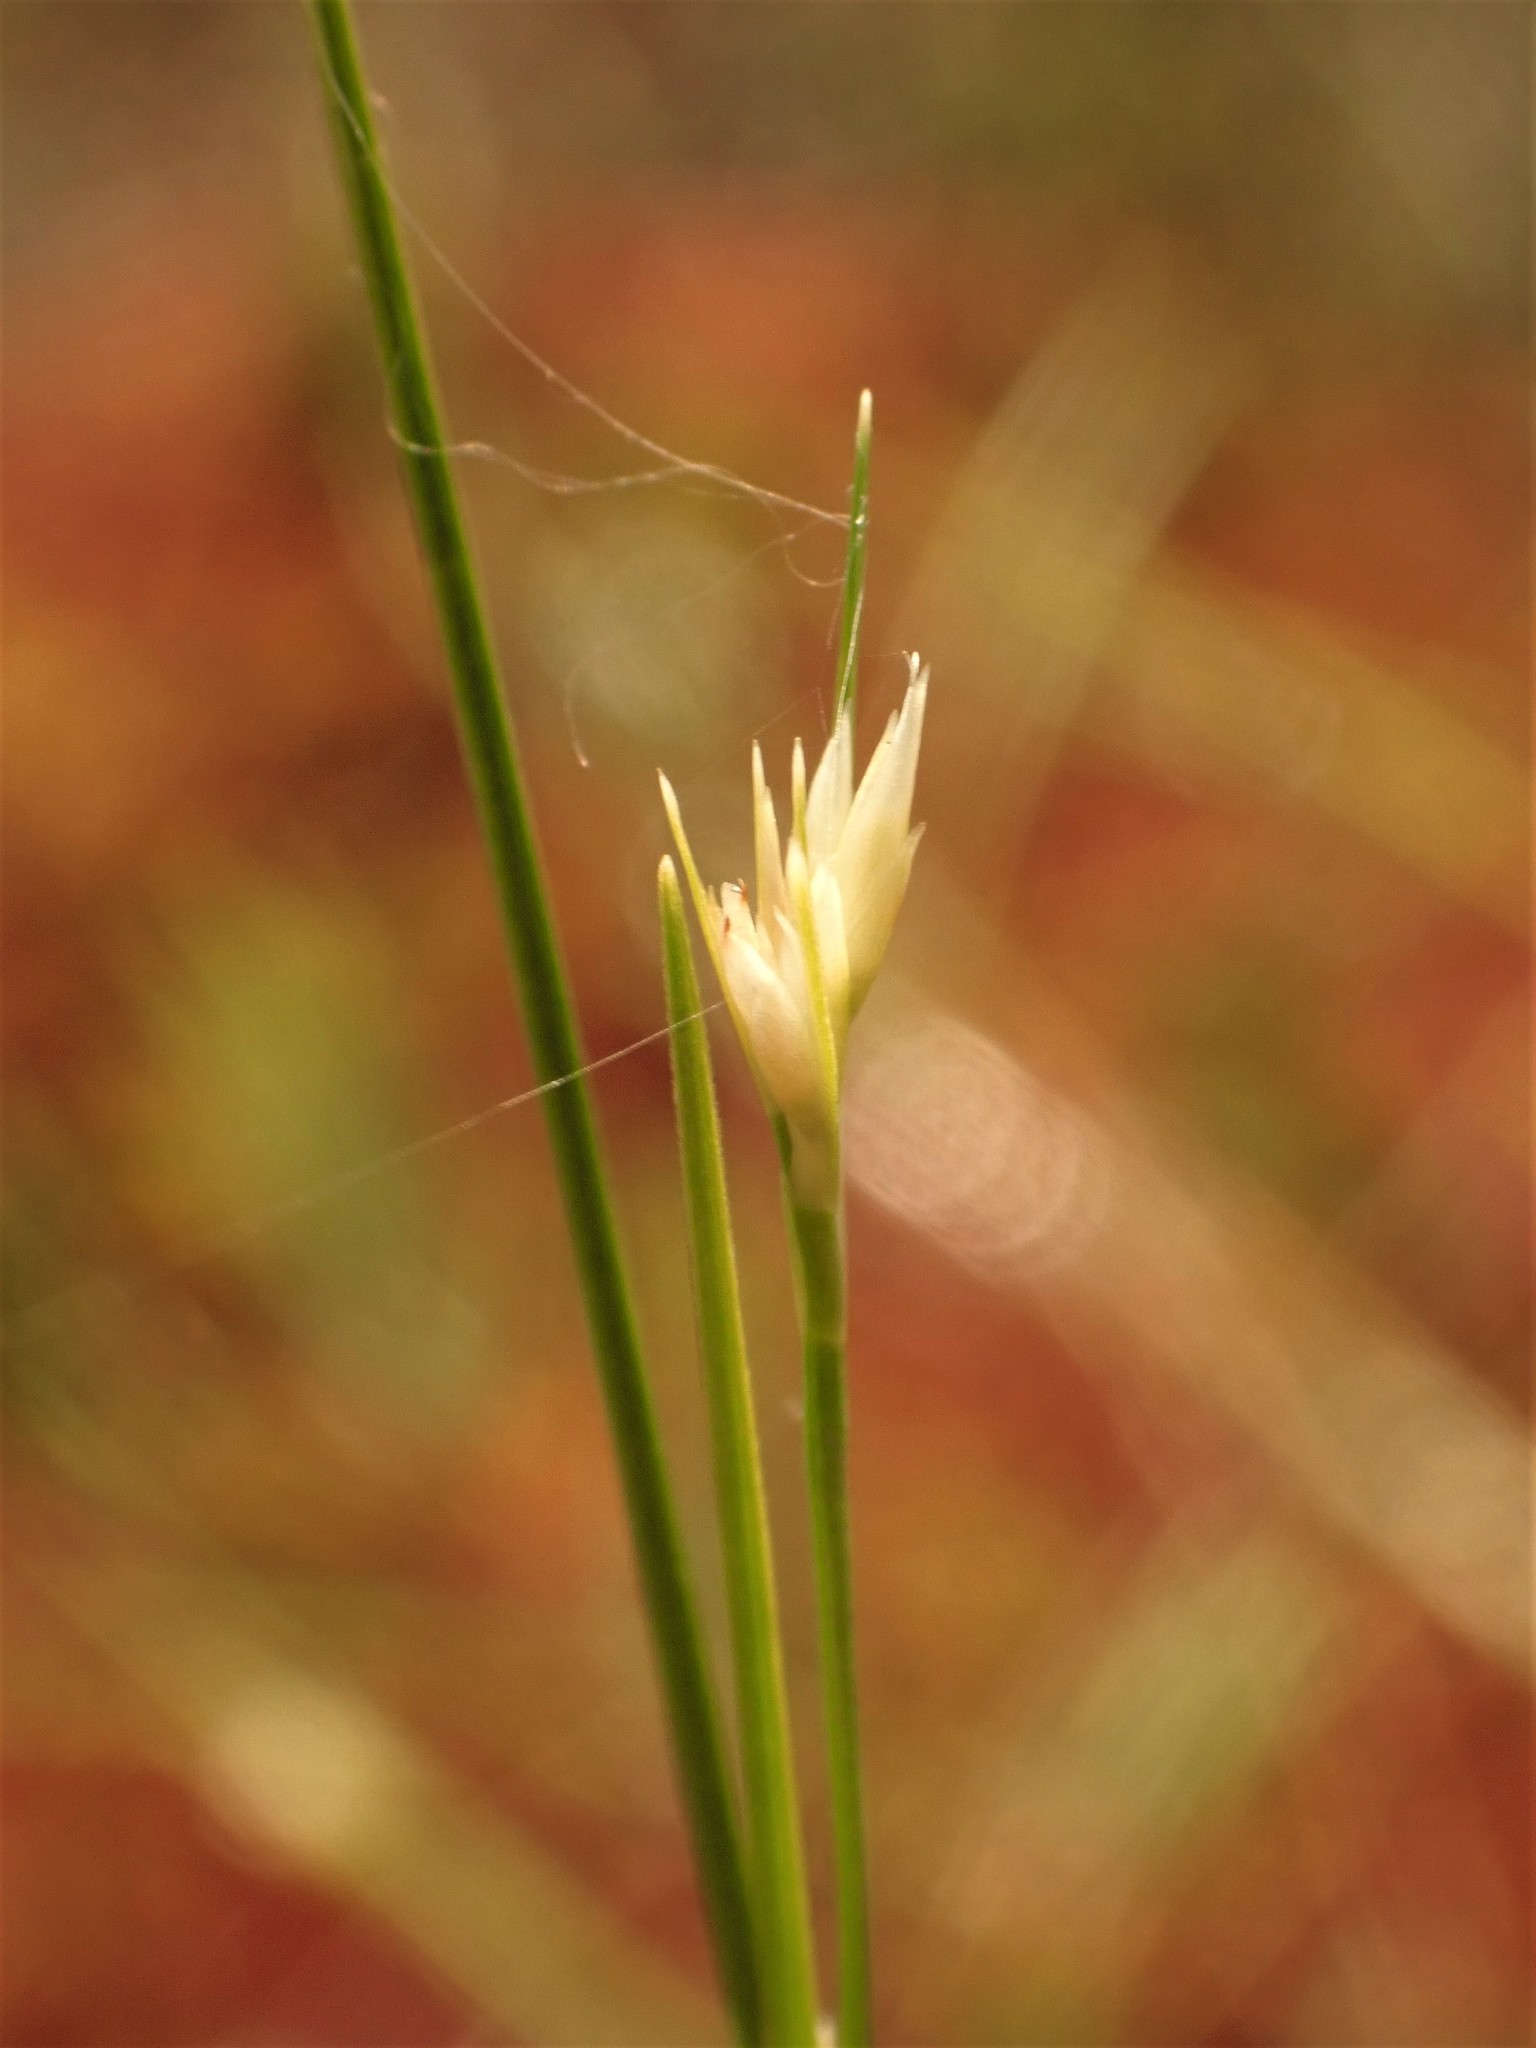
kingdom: Plantae
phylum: Tracheophyta
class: Liliopsida
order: Poales
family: Cyperaceae
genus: Rhynchospora
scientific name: Rhynchospora alba
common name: White beak-sedge
